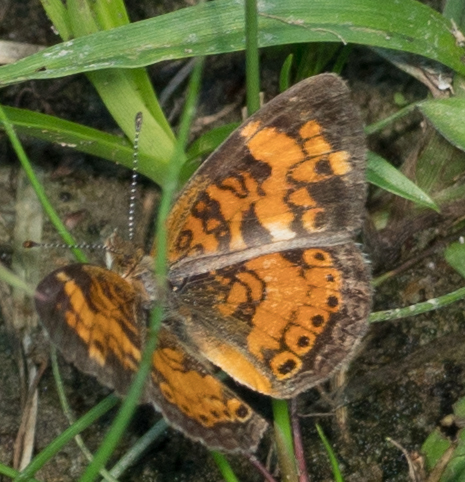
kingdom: Animalia
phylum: Arthropoda
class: Insecta
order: Lepidoptera
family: Nymphalidae
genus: Phyciodes
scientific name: Phyciodes tharos
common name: Pearl crescent
